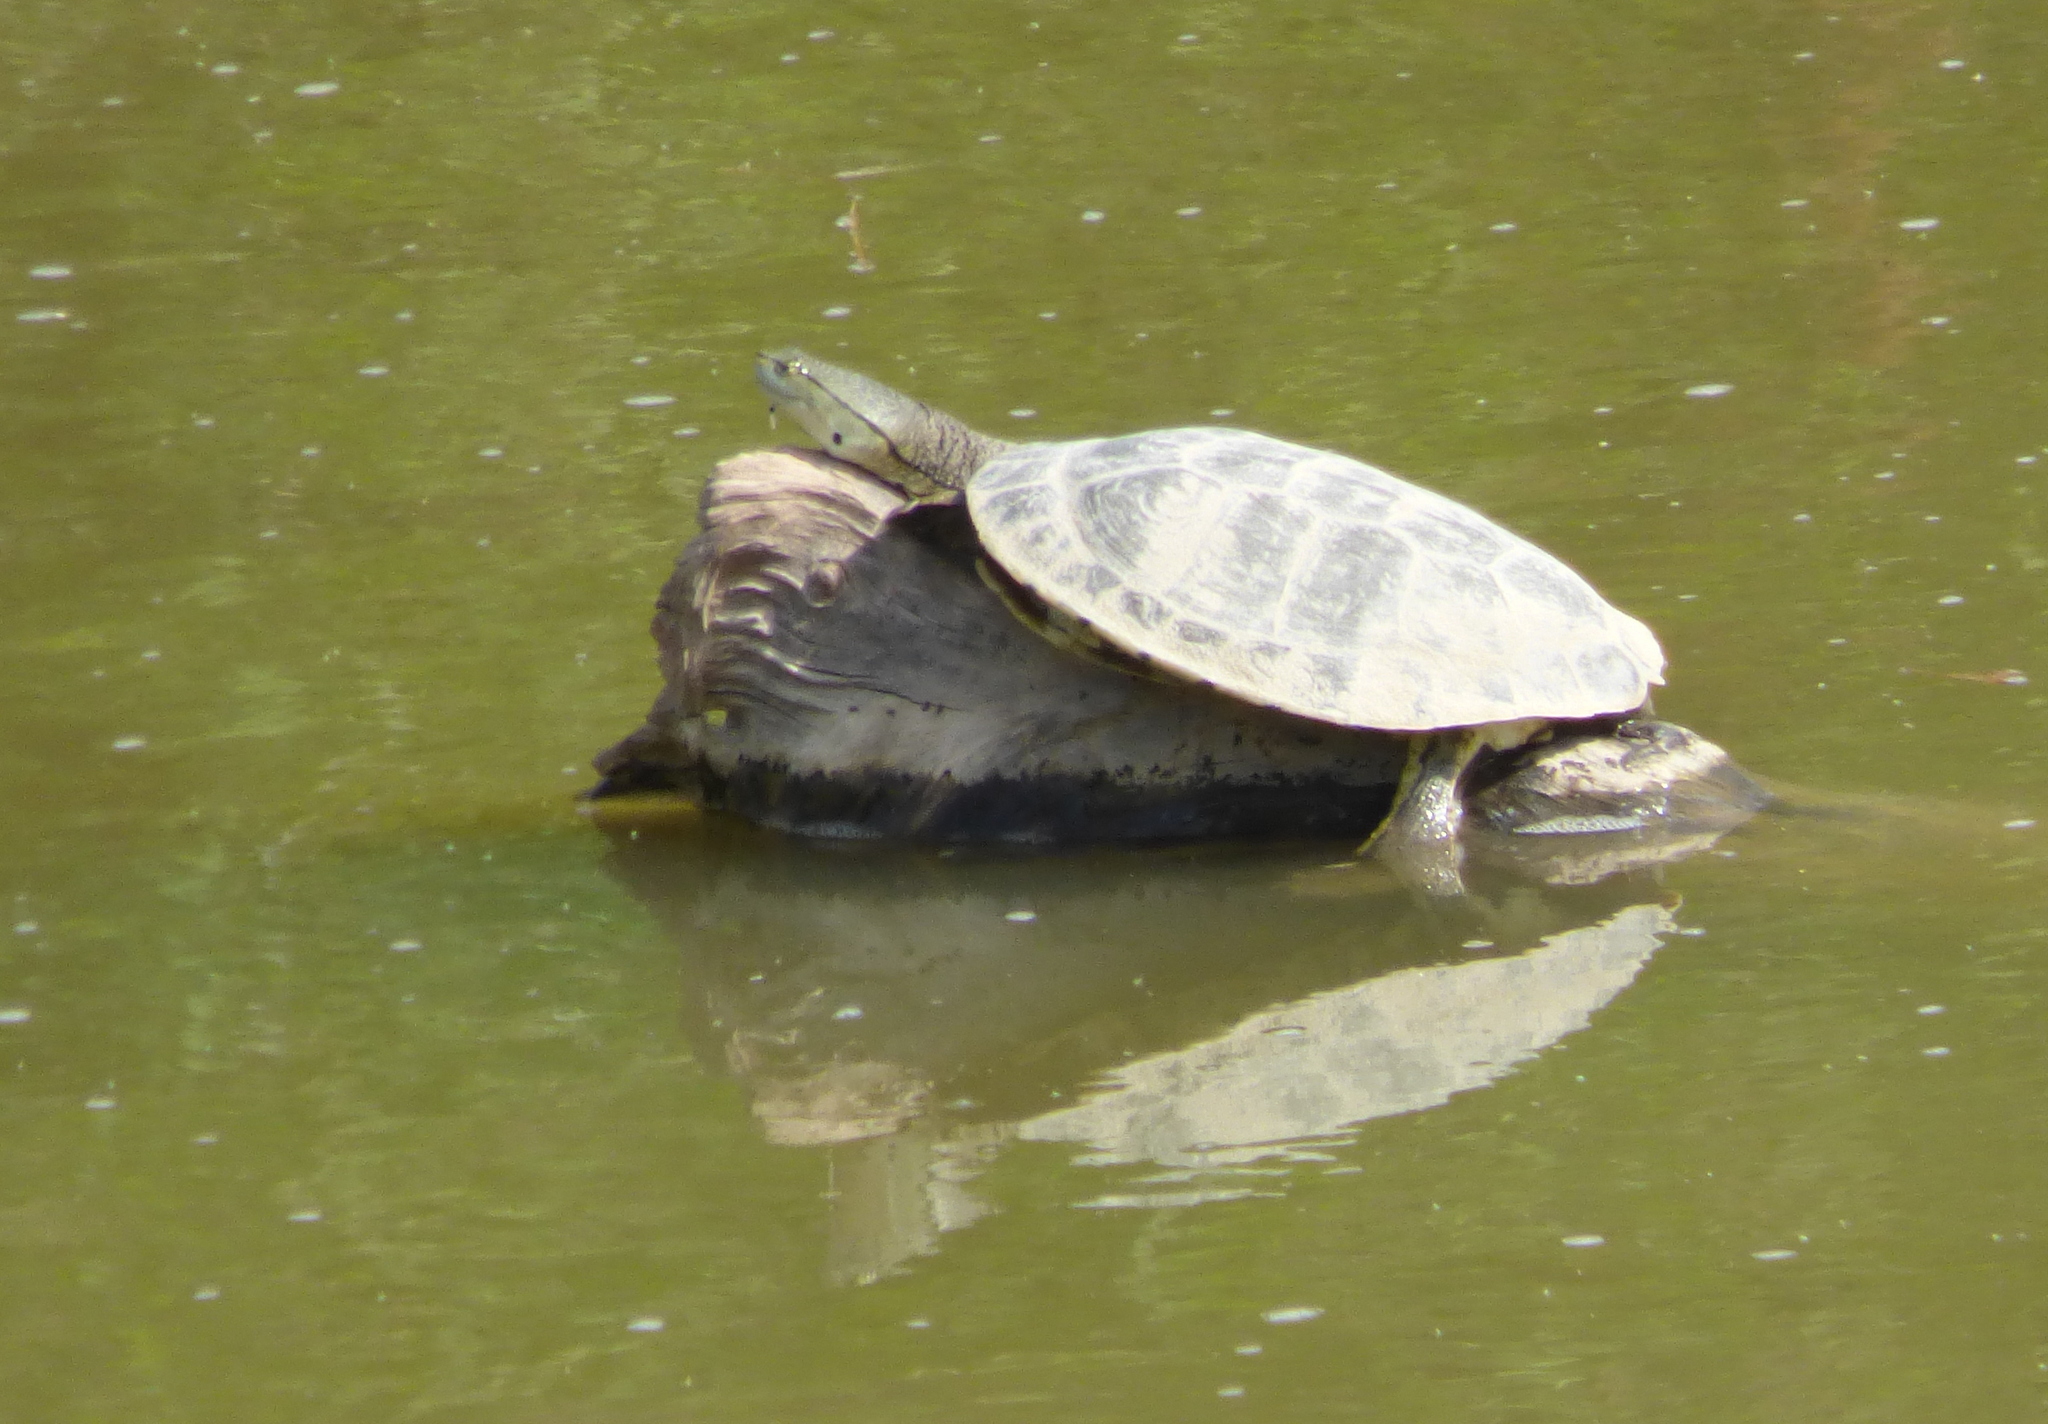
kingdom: Animalia
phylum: Chordata
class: Testudines
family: Chelidae
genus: Phrynops
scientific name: Phrynops hilarii
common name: Side-necked turtle of saint hillaire
